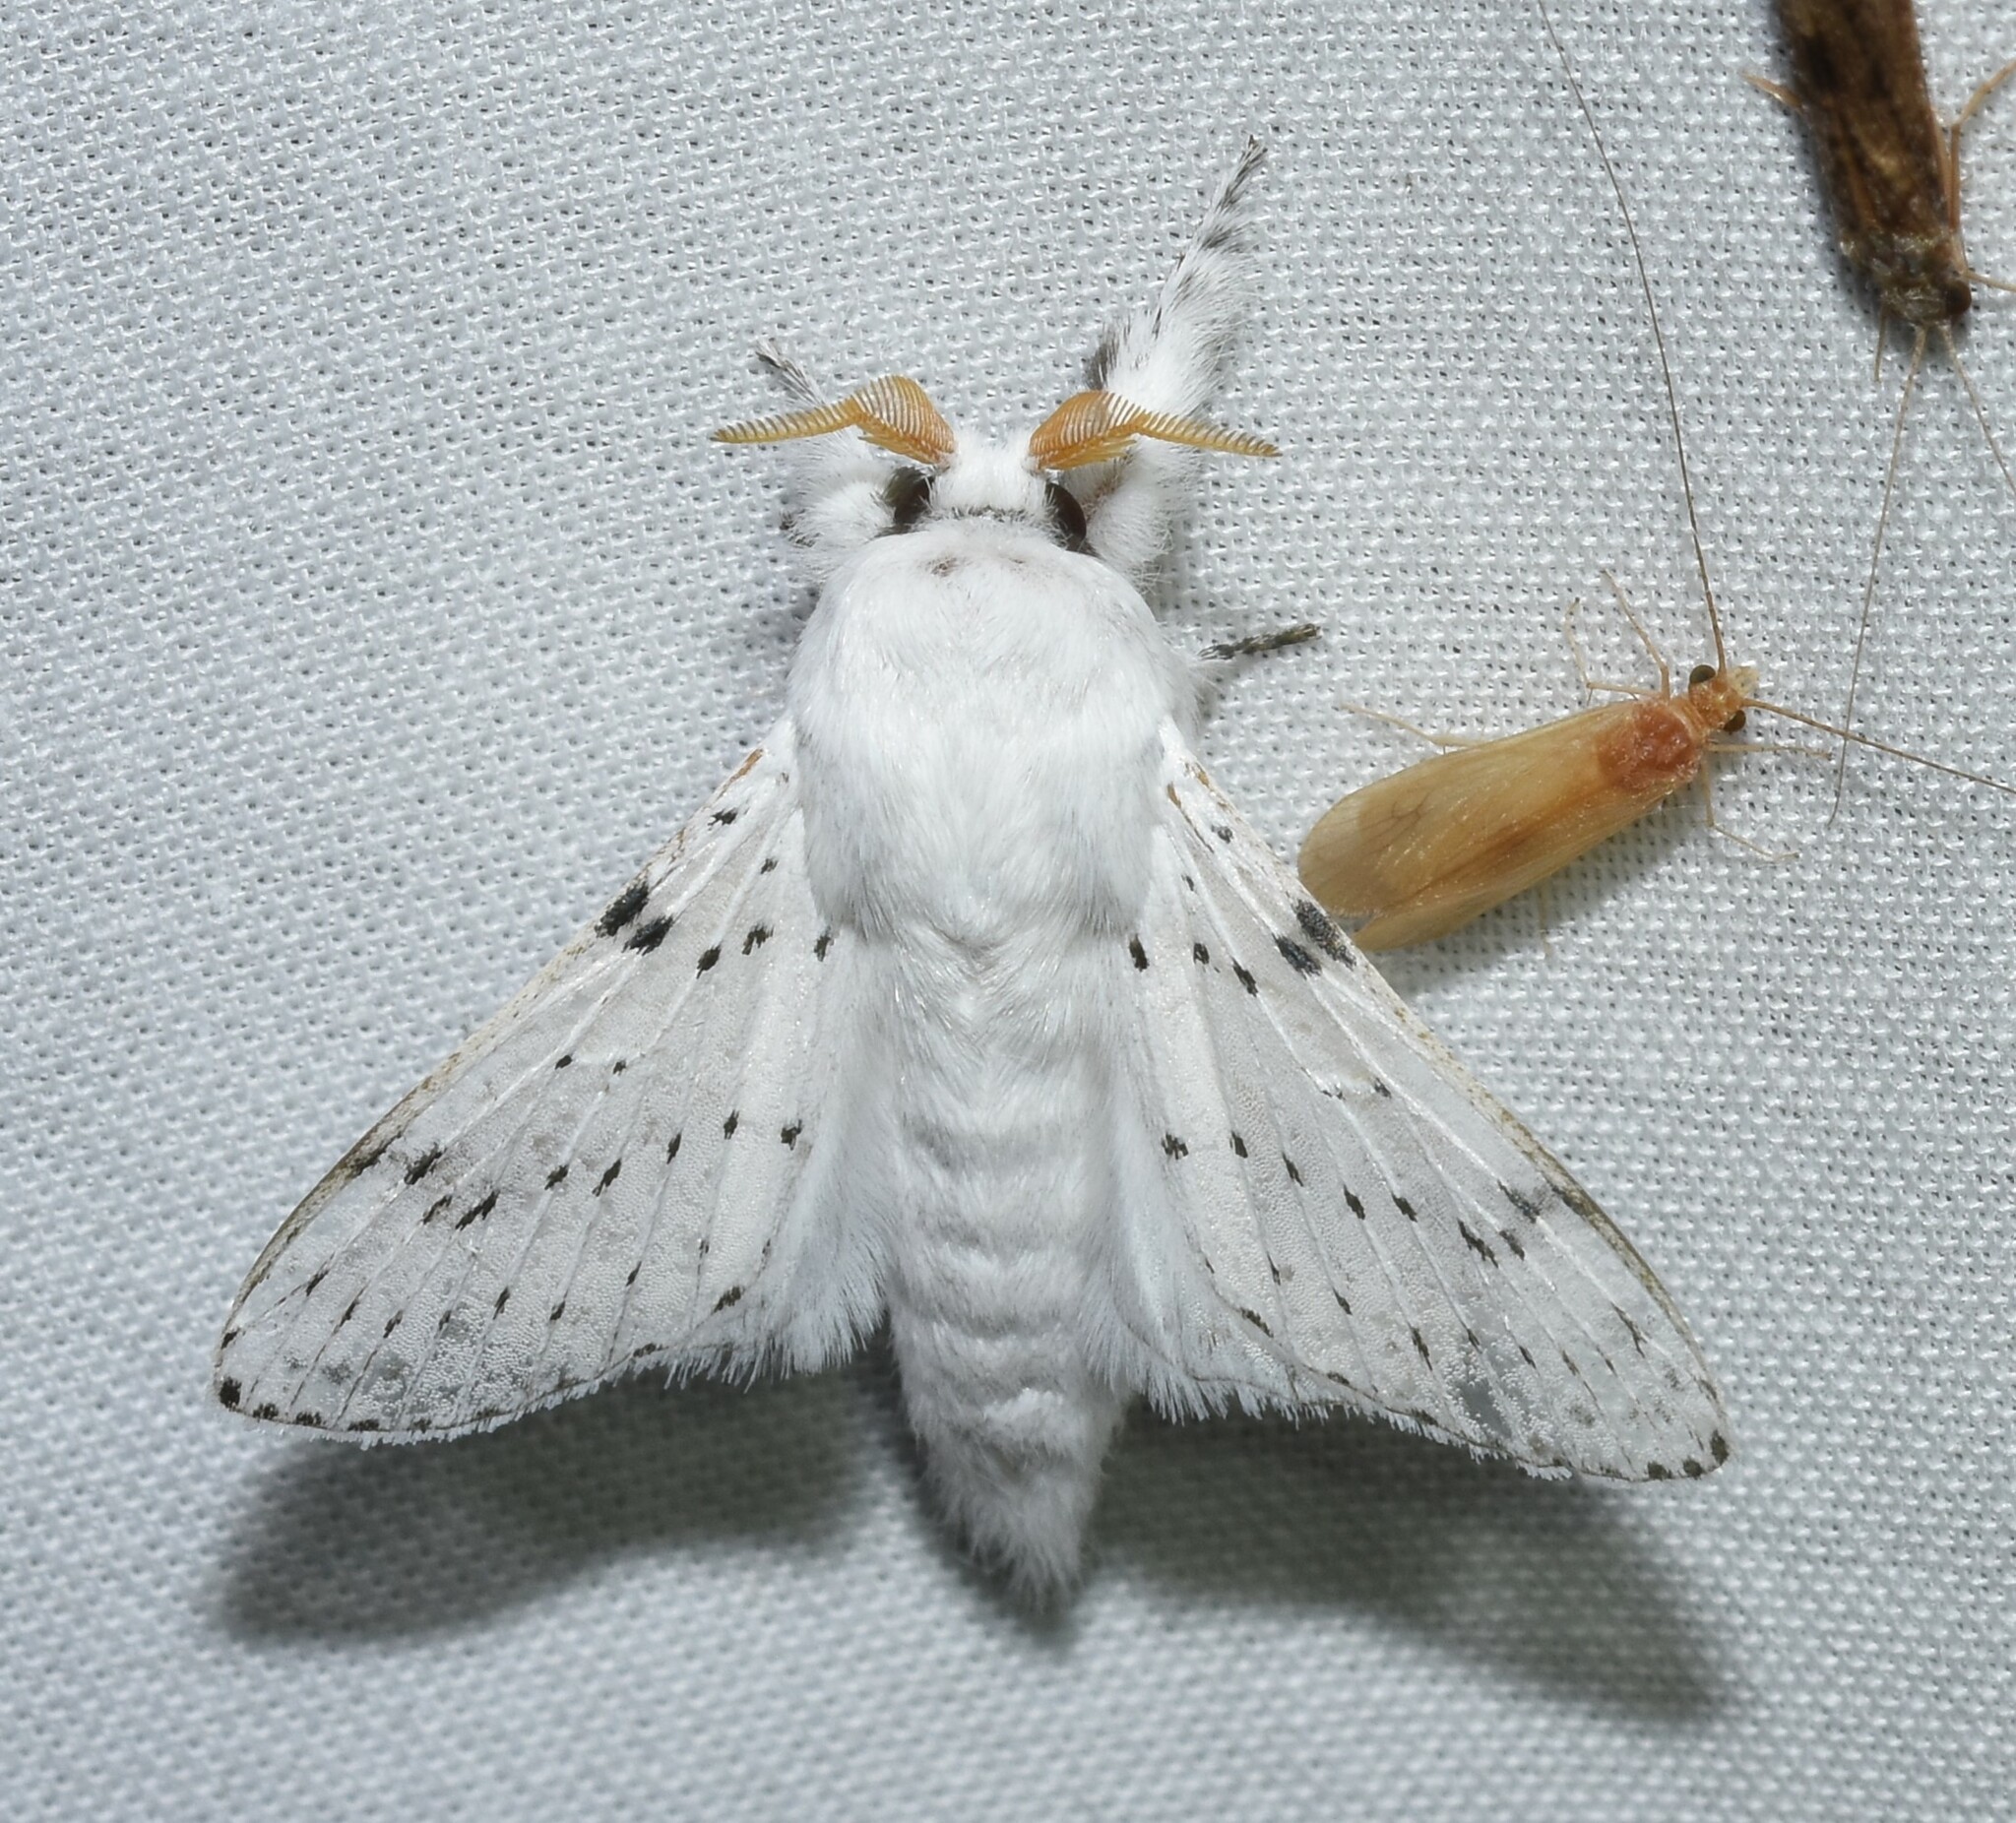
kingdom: Animalia
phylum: Arthropoda
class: Insecta
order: Lepidoptera
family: Lasiocampidae
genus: Artace
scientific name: Artace cribrarius
